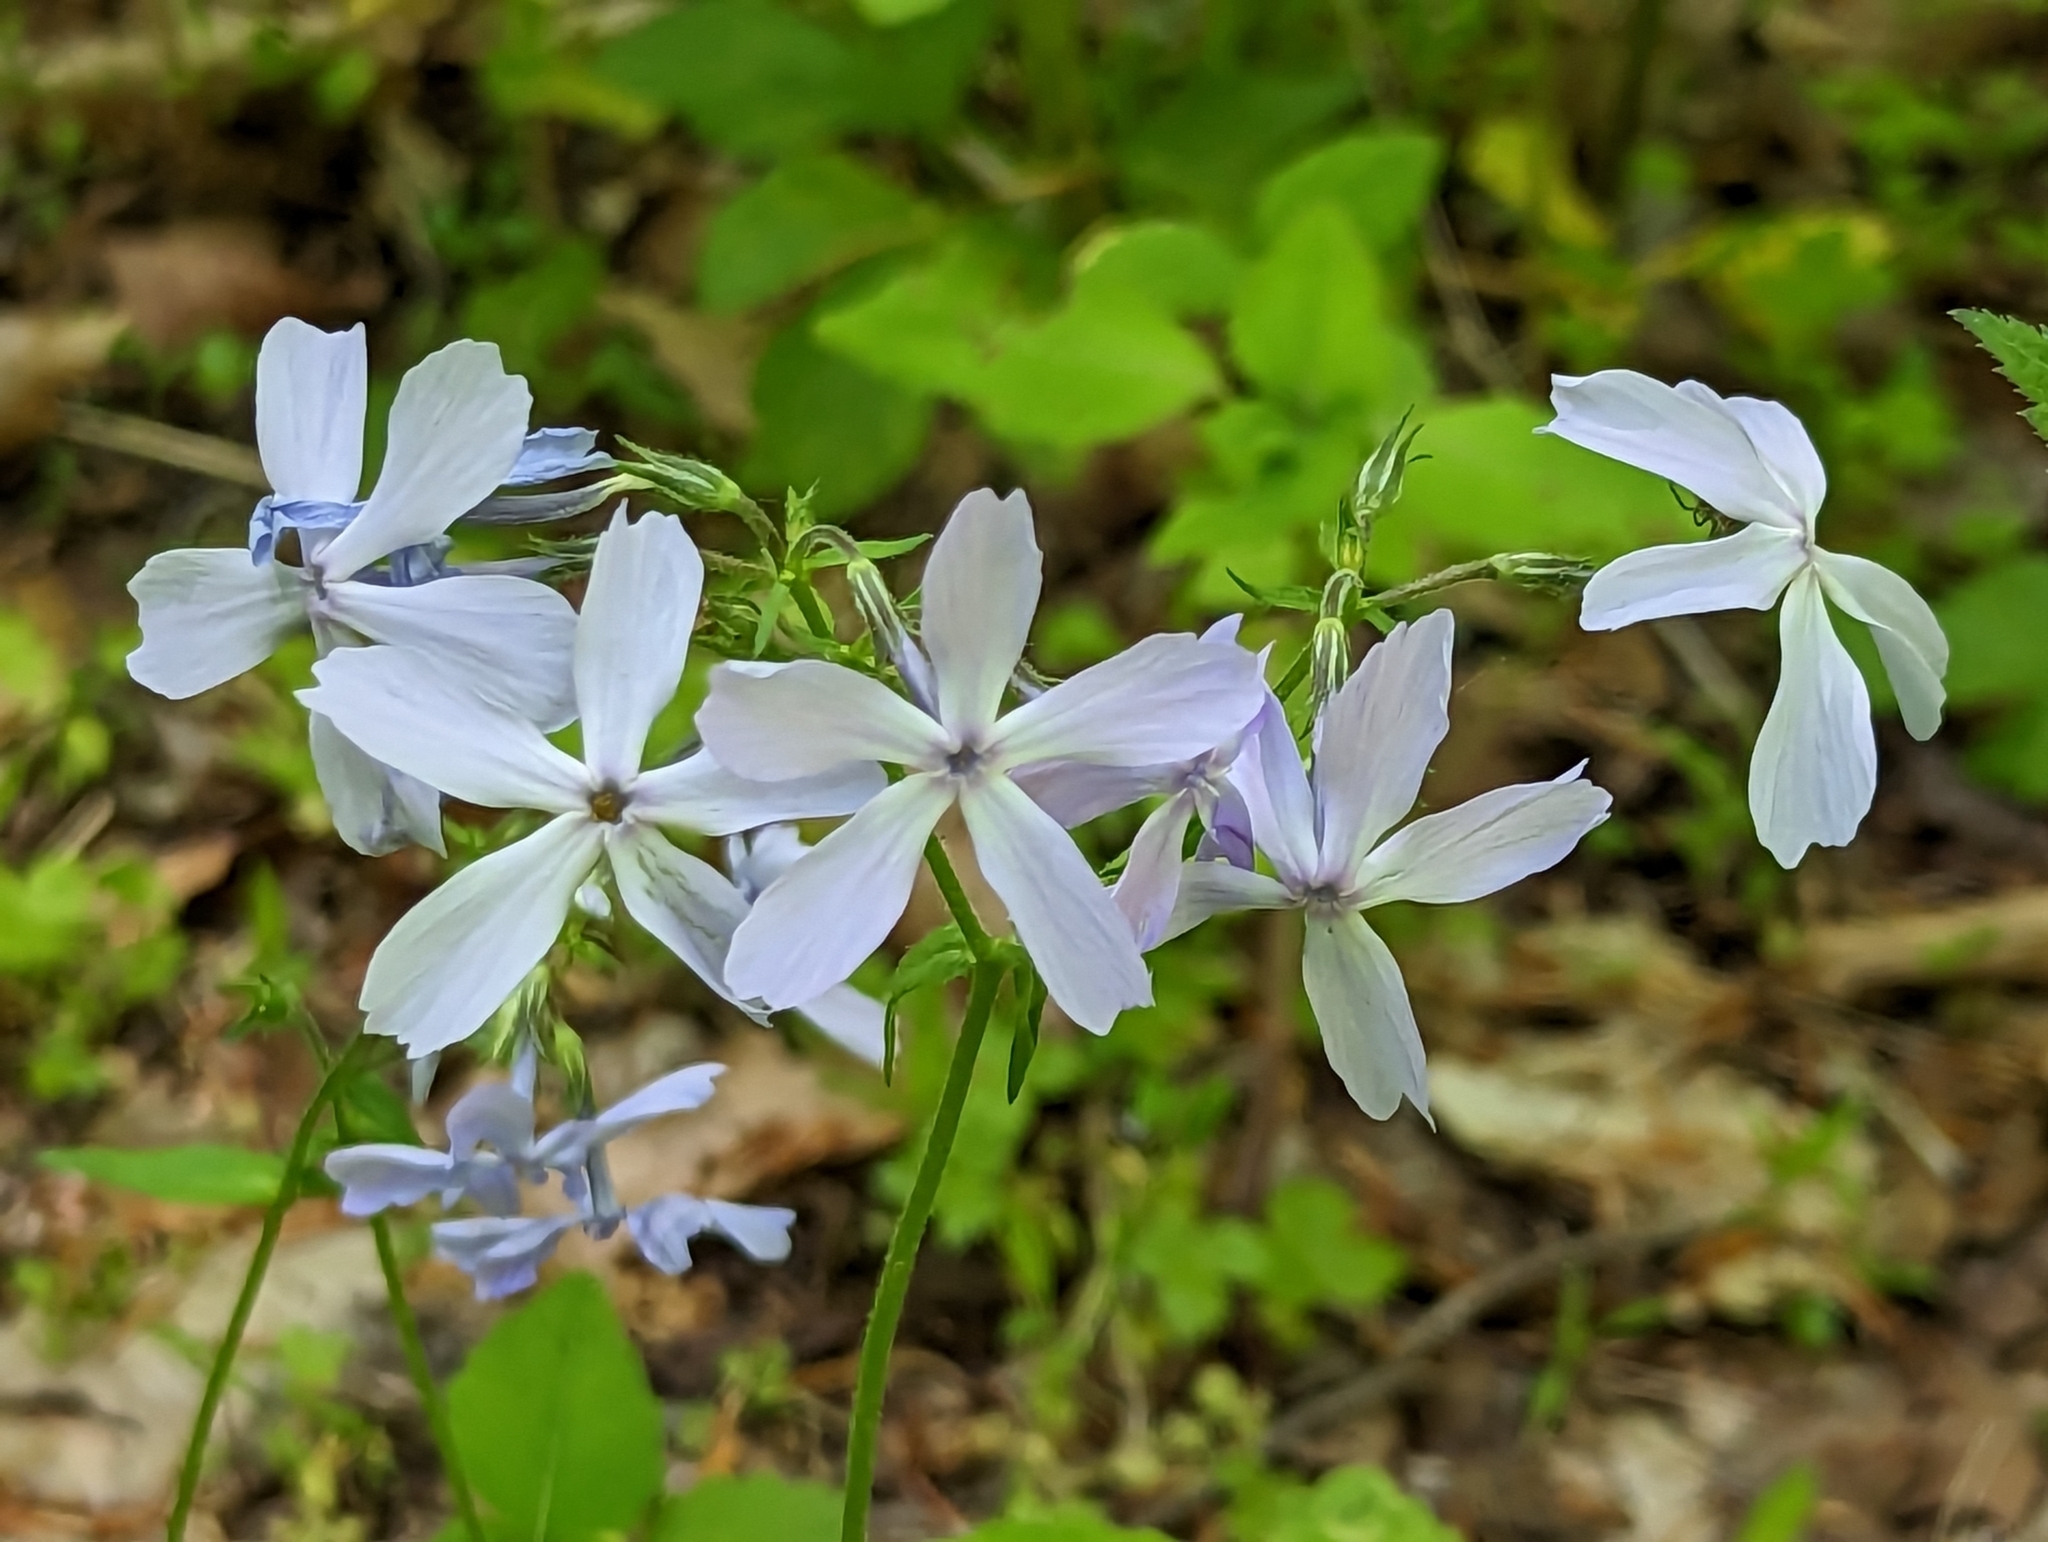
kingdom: Plantae
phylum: Tracheophyta
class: Magnoliopsida
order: Ericales
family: Polemoniaceae
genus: Phlox
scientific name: Phlox divaricata
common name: Blue phlox
